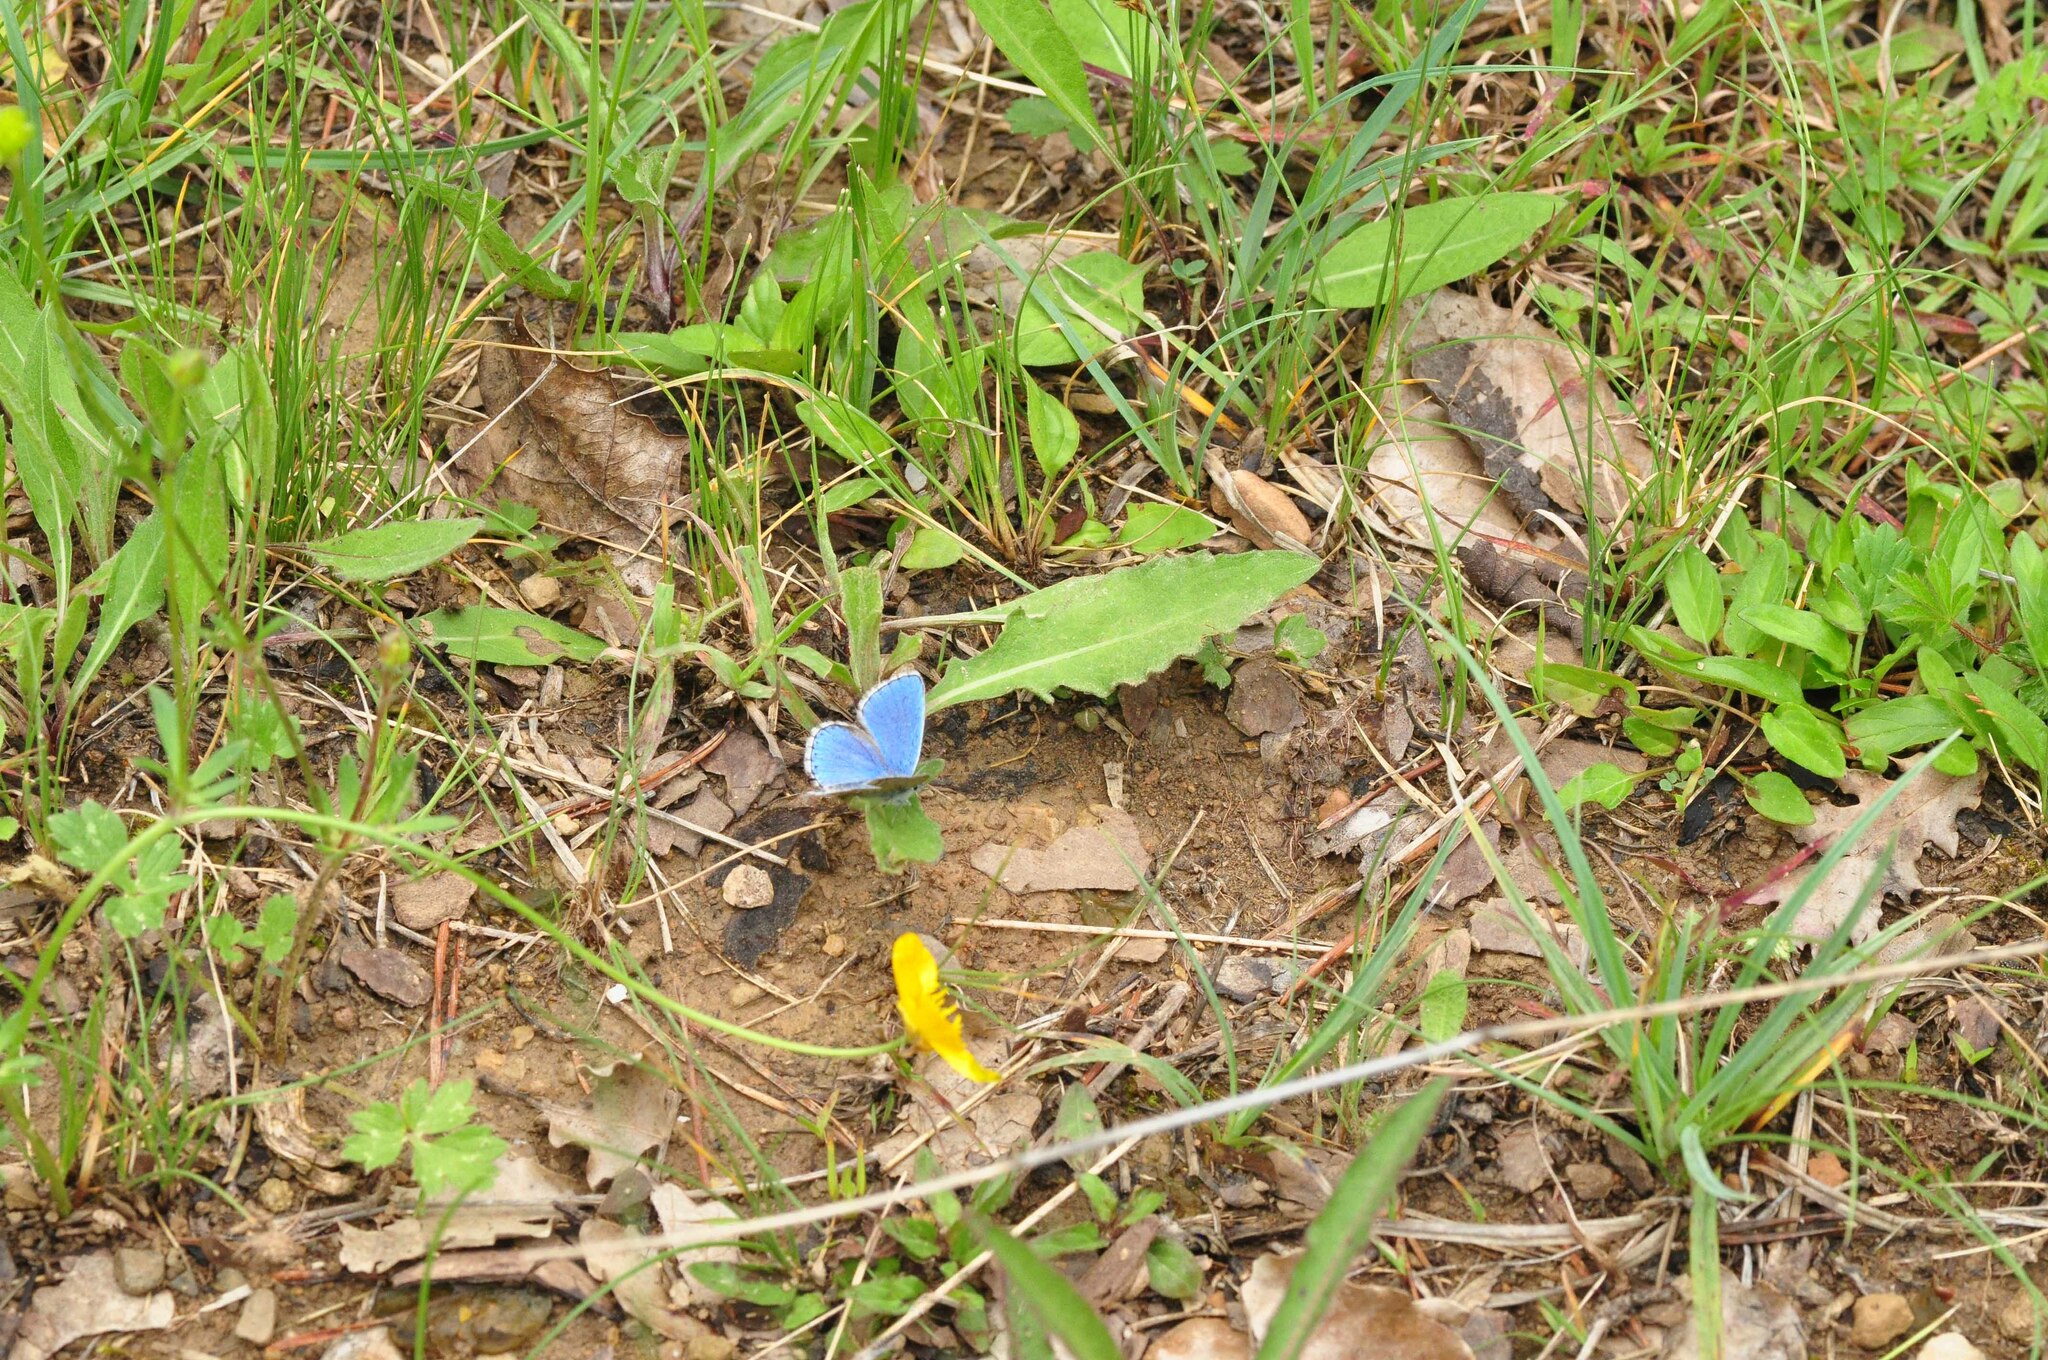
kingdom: Animalia
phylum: Arthropoda
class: Insecta
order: Lepidoptera
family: Lycaenidae
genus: Lysandra
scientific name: Lysandra bellargus
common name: Adonis blue
